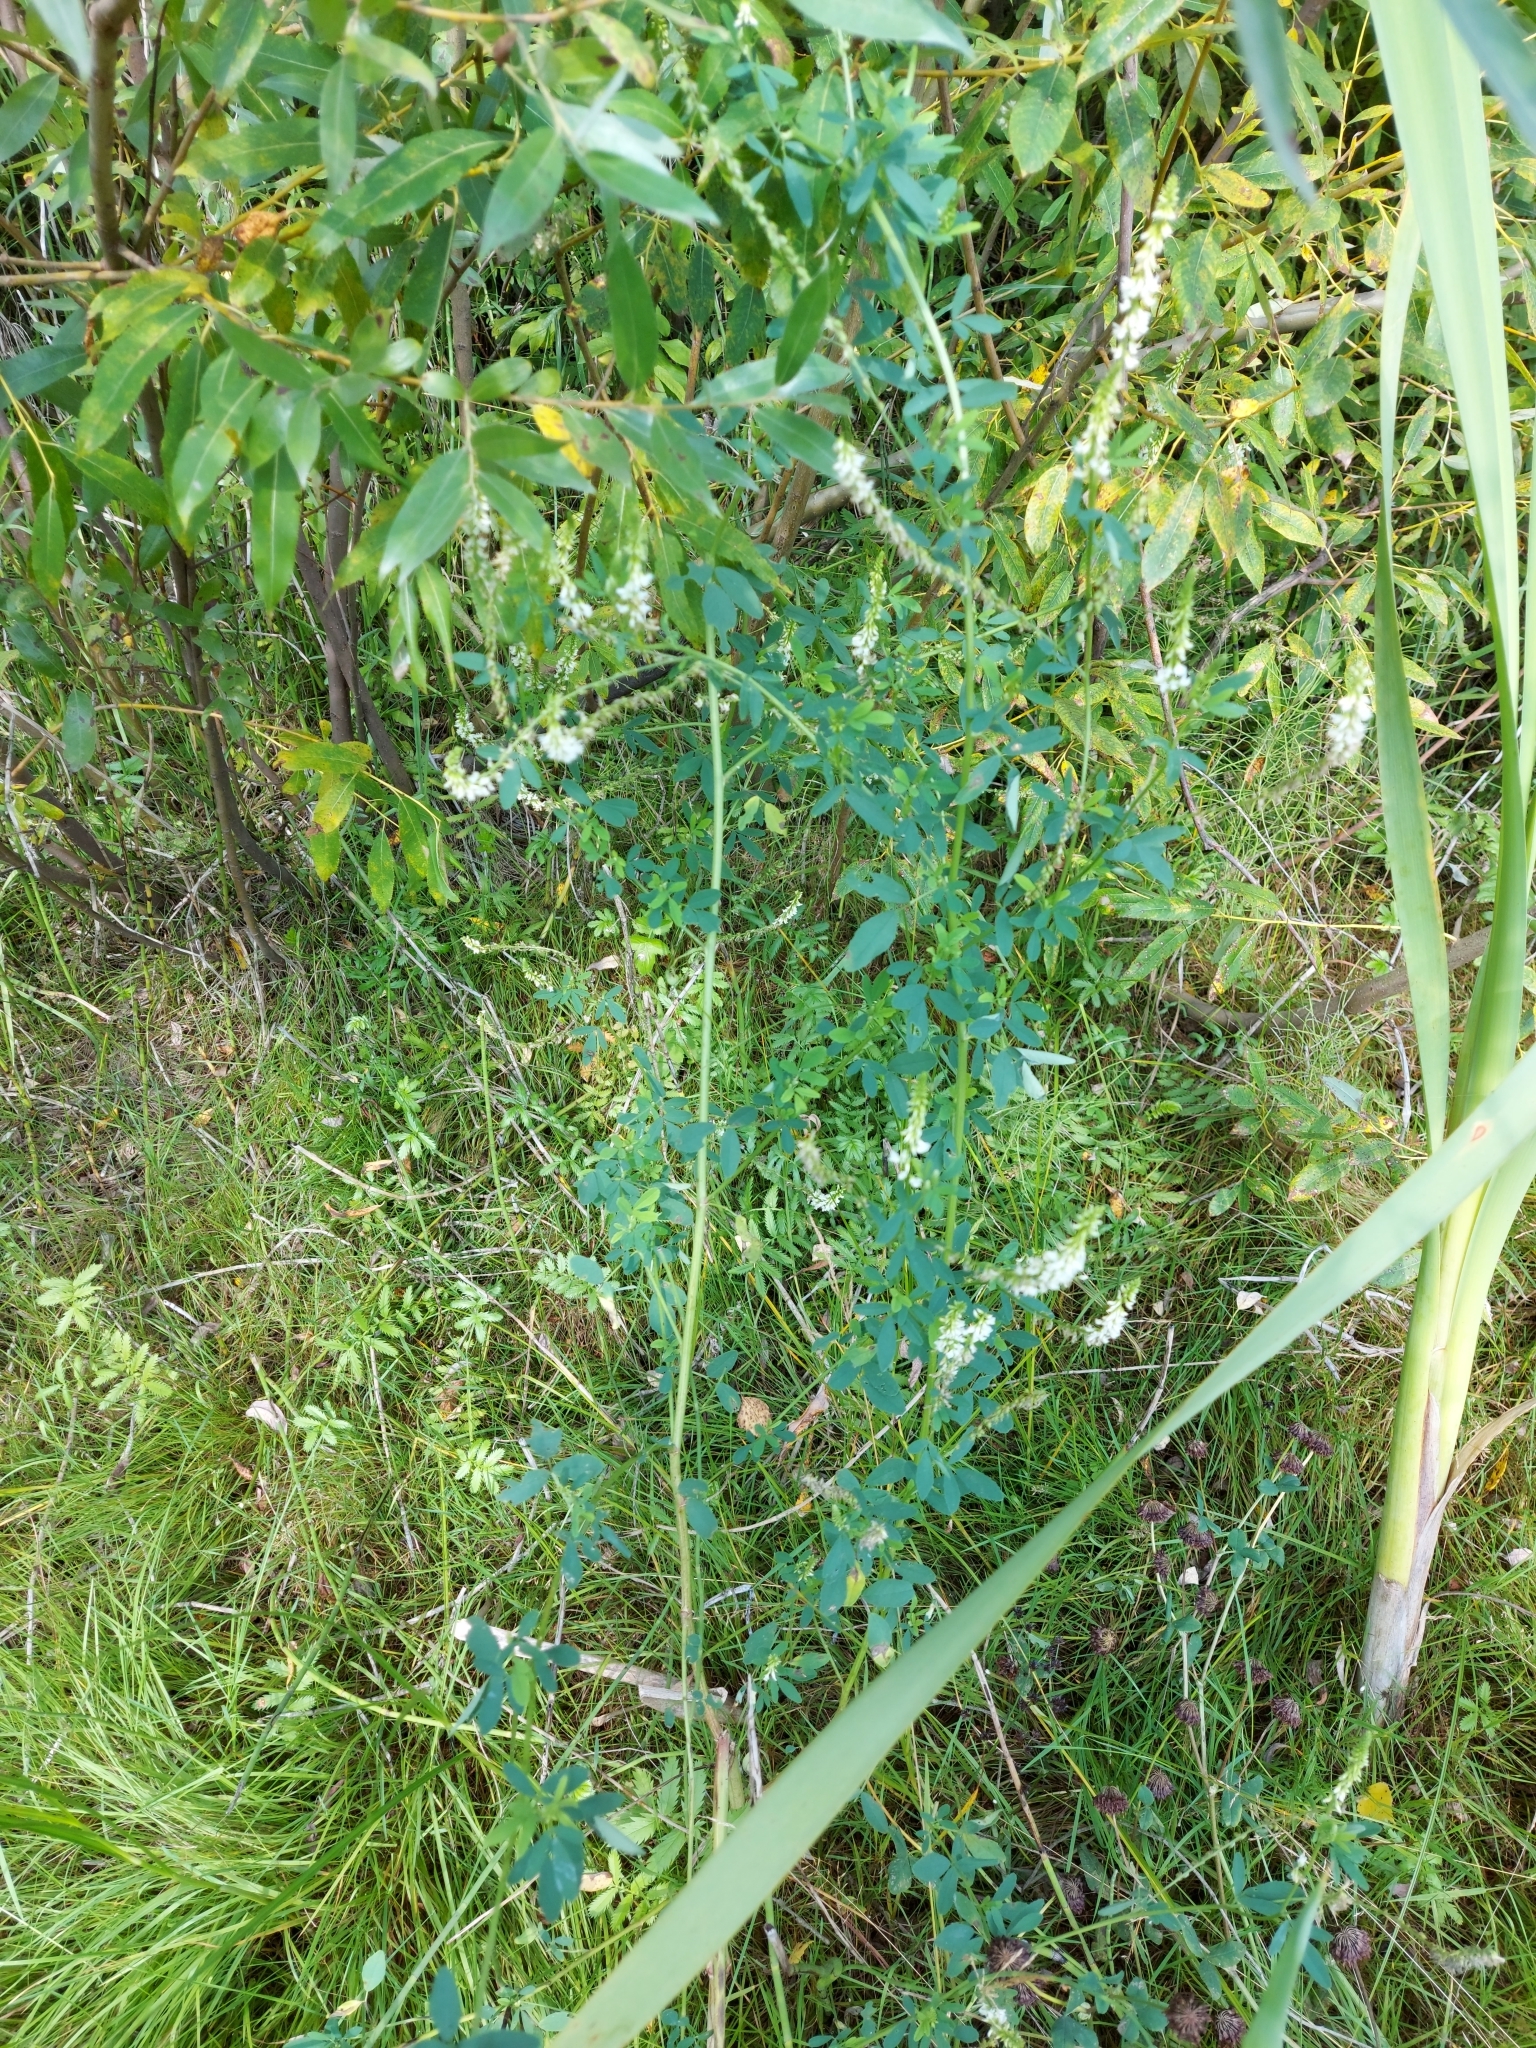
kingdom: Plantae
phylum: Tracheophyta
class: Magnoliopsida
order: Fabales
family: Fabaceae
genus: Melilotus
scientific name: Melilotus albus
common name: White melilot
